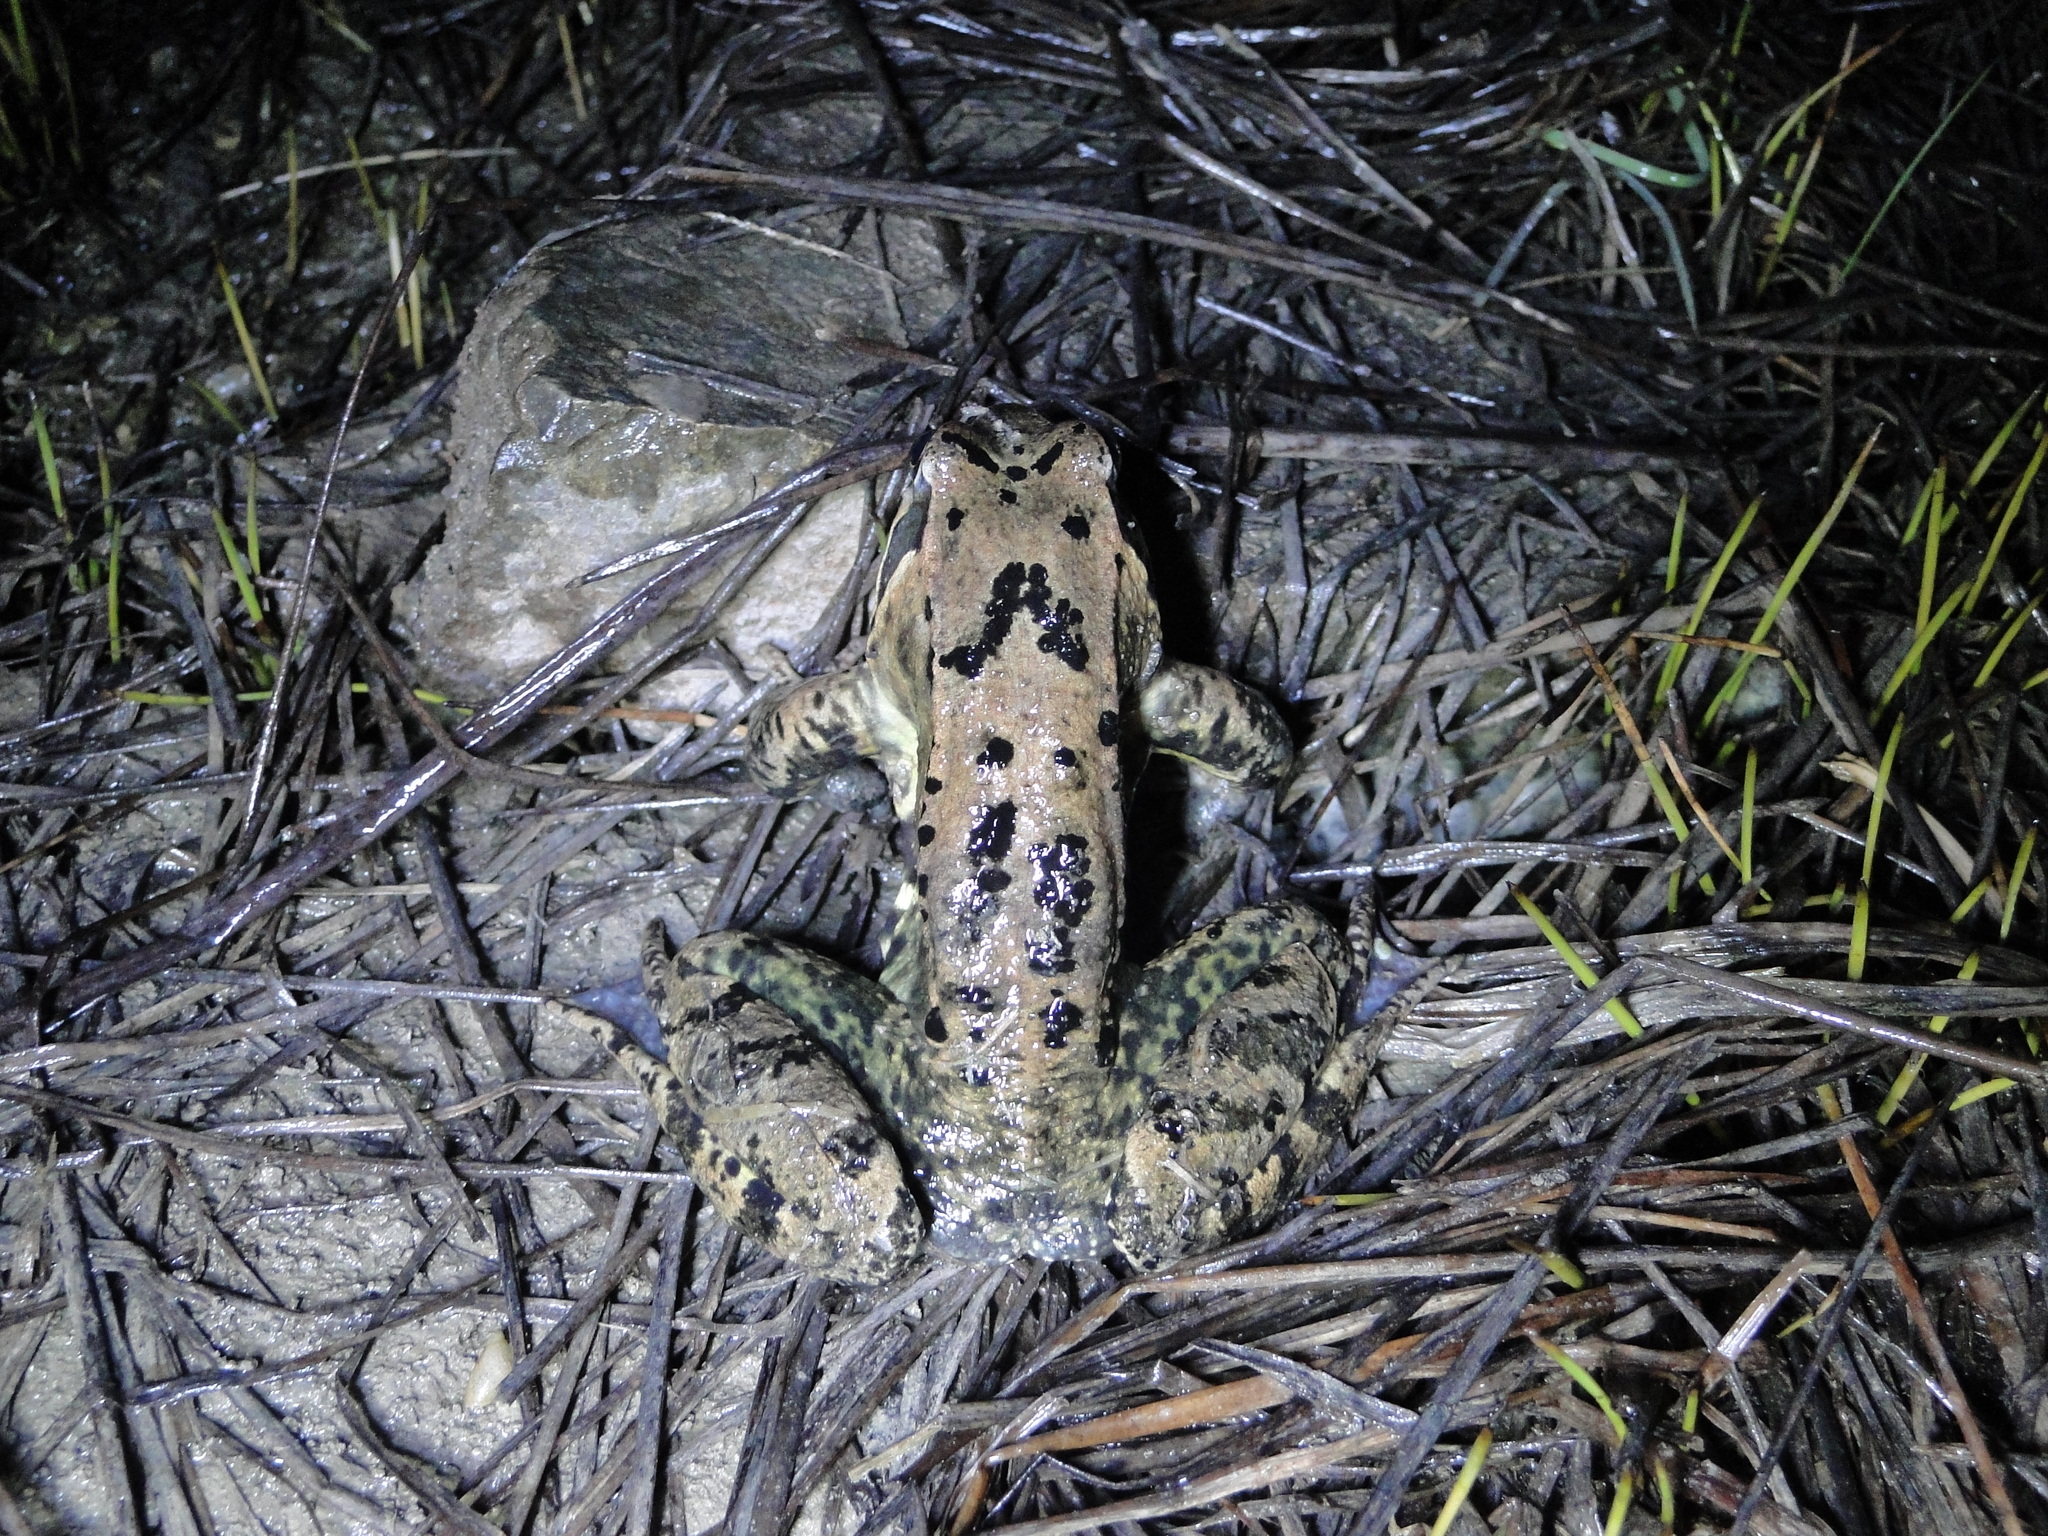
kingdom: Animalia
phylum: Chordata
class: Amphibia
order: Anura
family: Ranidae
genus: Rana
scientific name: Rana temporaria
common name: Common frog
